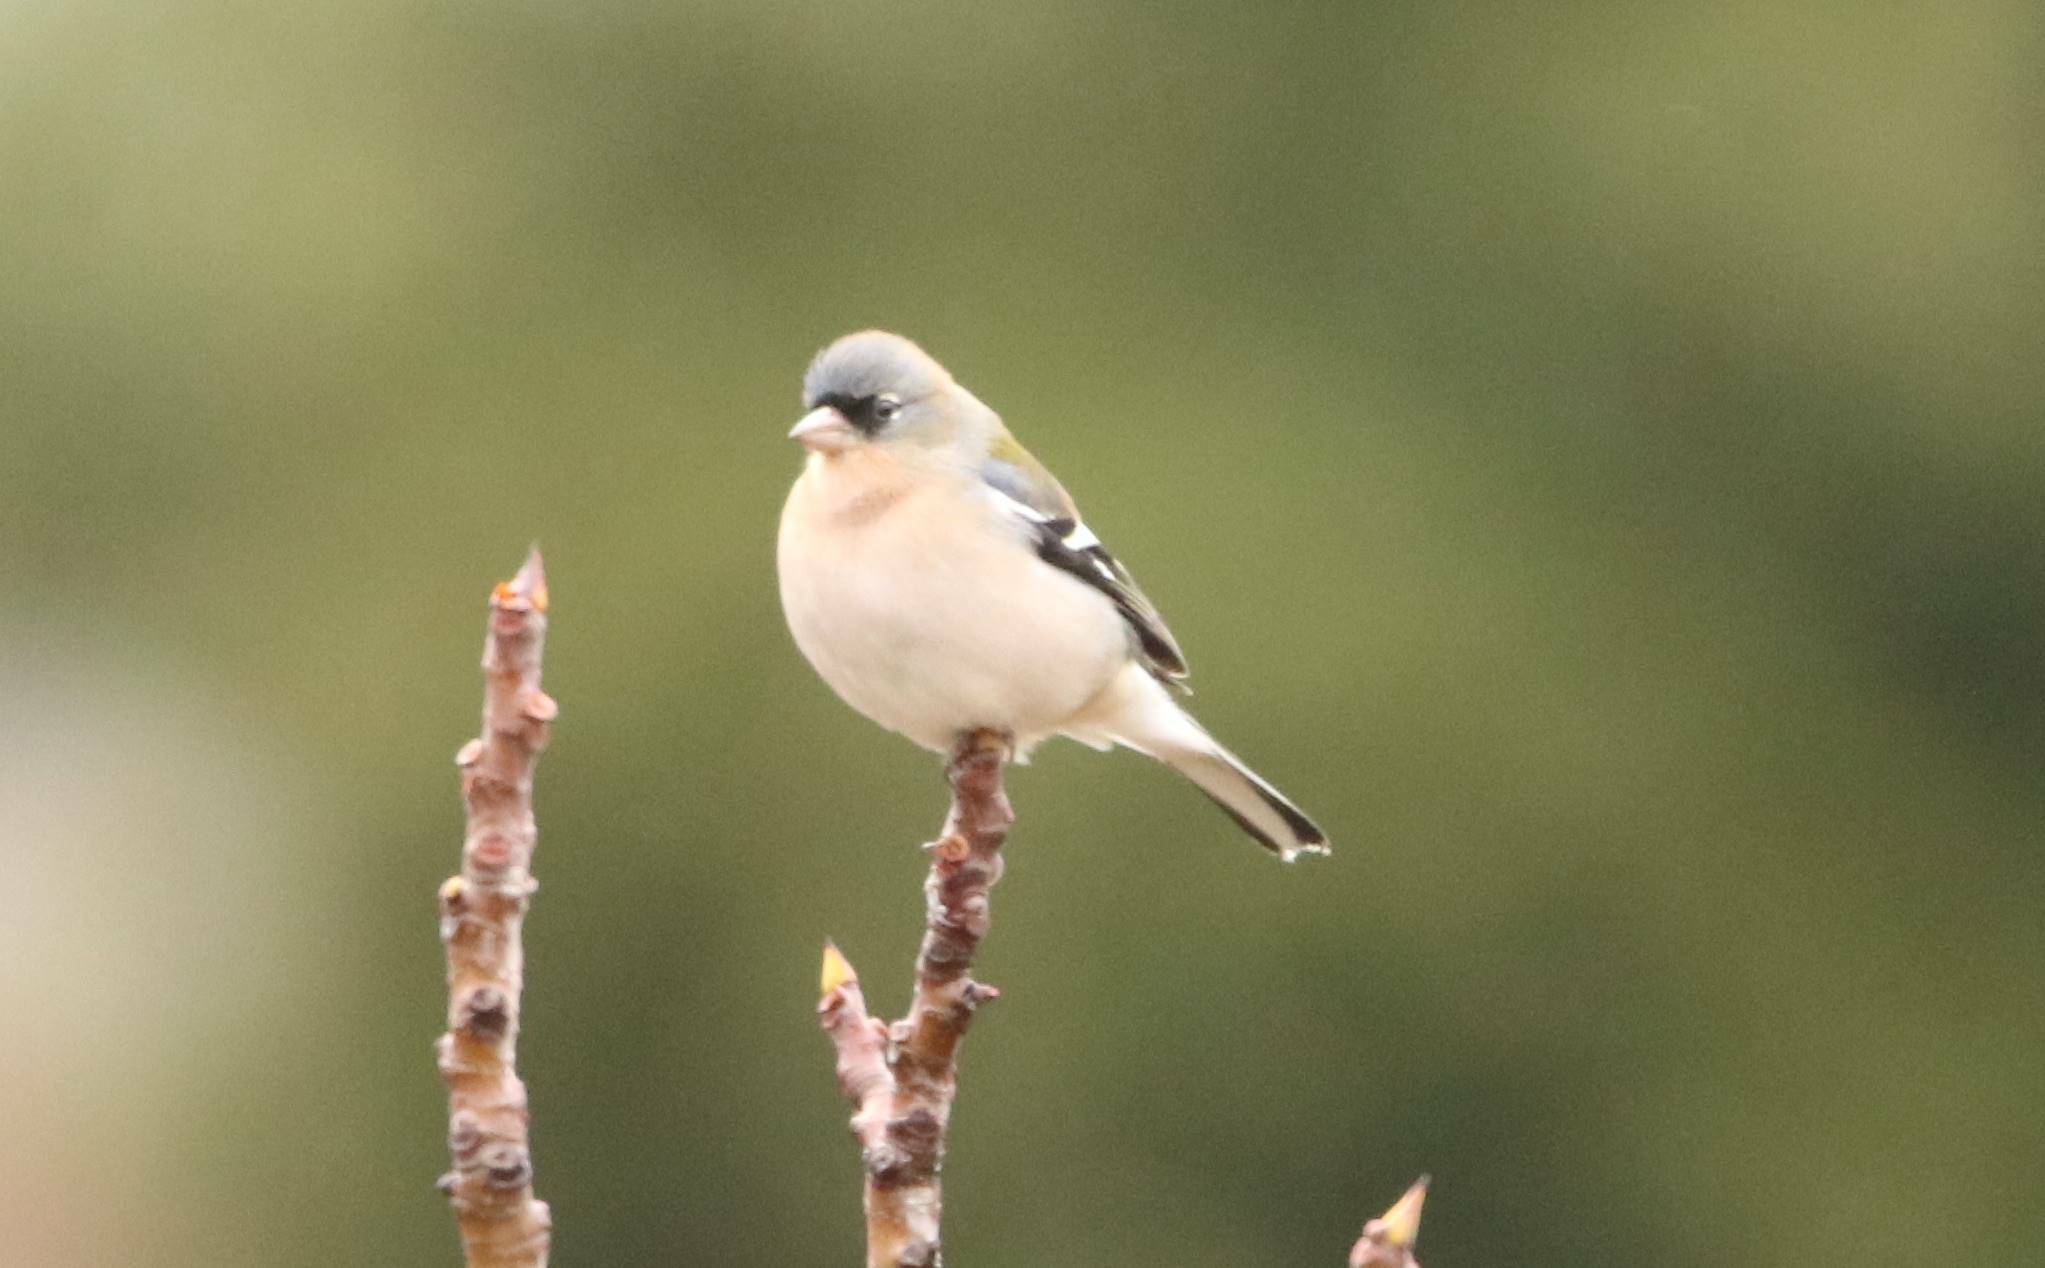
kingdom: Animalia
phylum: Chordata
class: Aves
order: Passeriformes
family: Fringillidae
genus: Fringilla
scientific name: Fringilla spodiogenys
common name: African chaffinch
